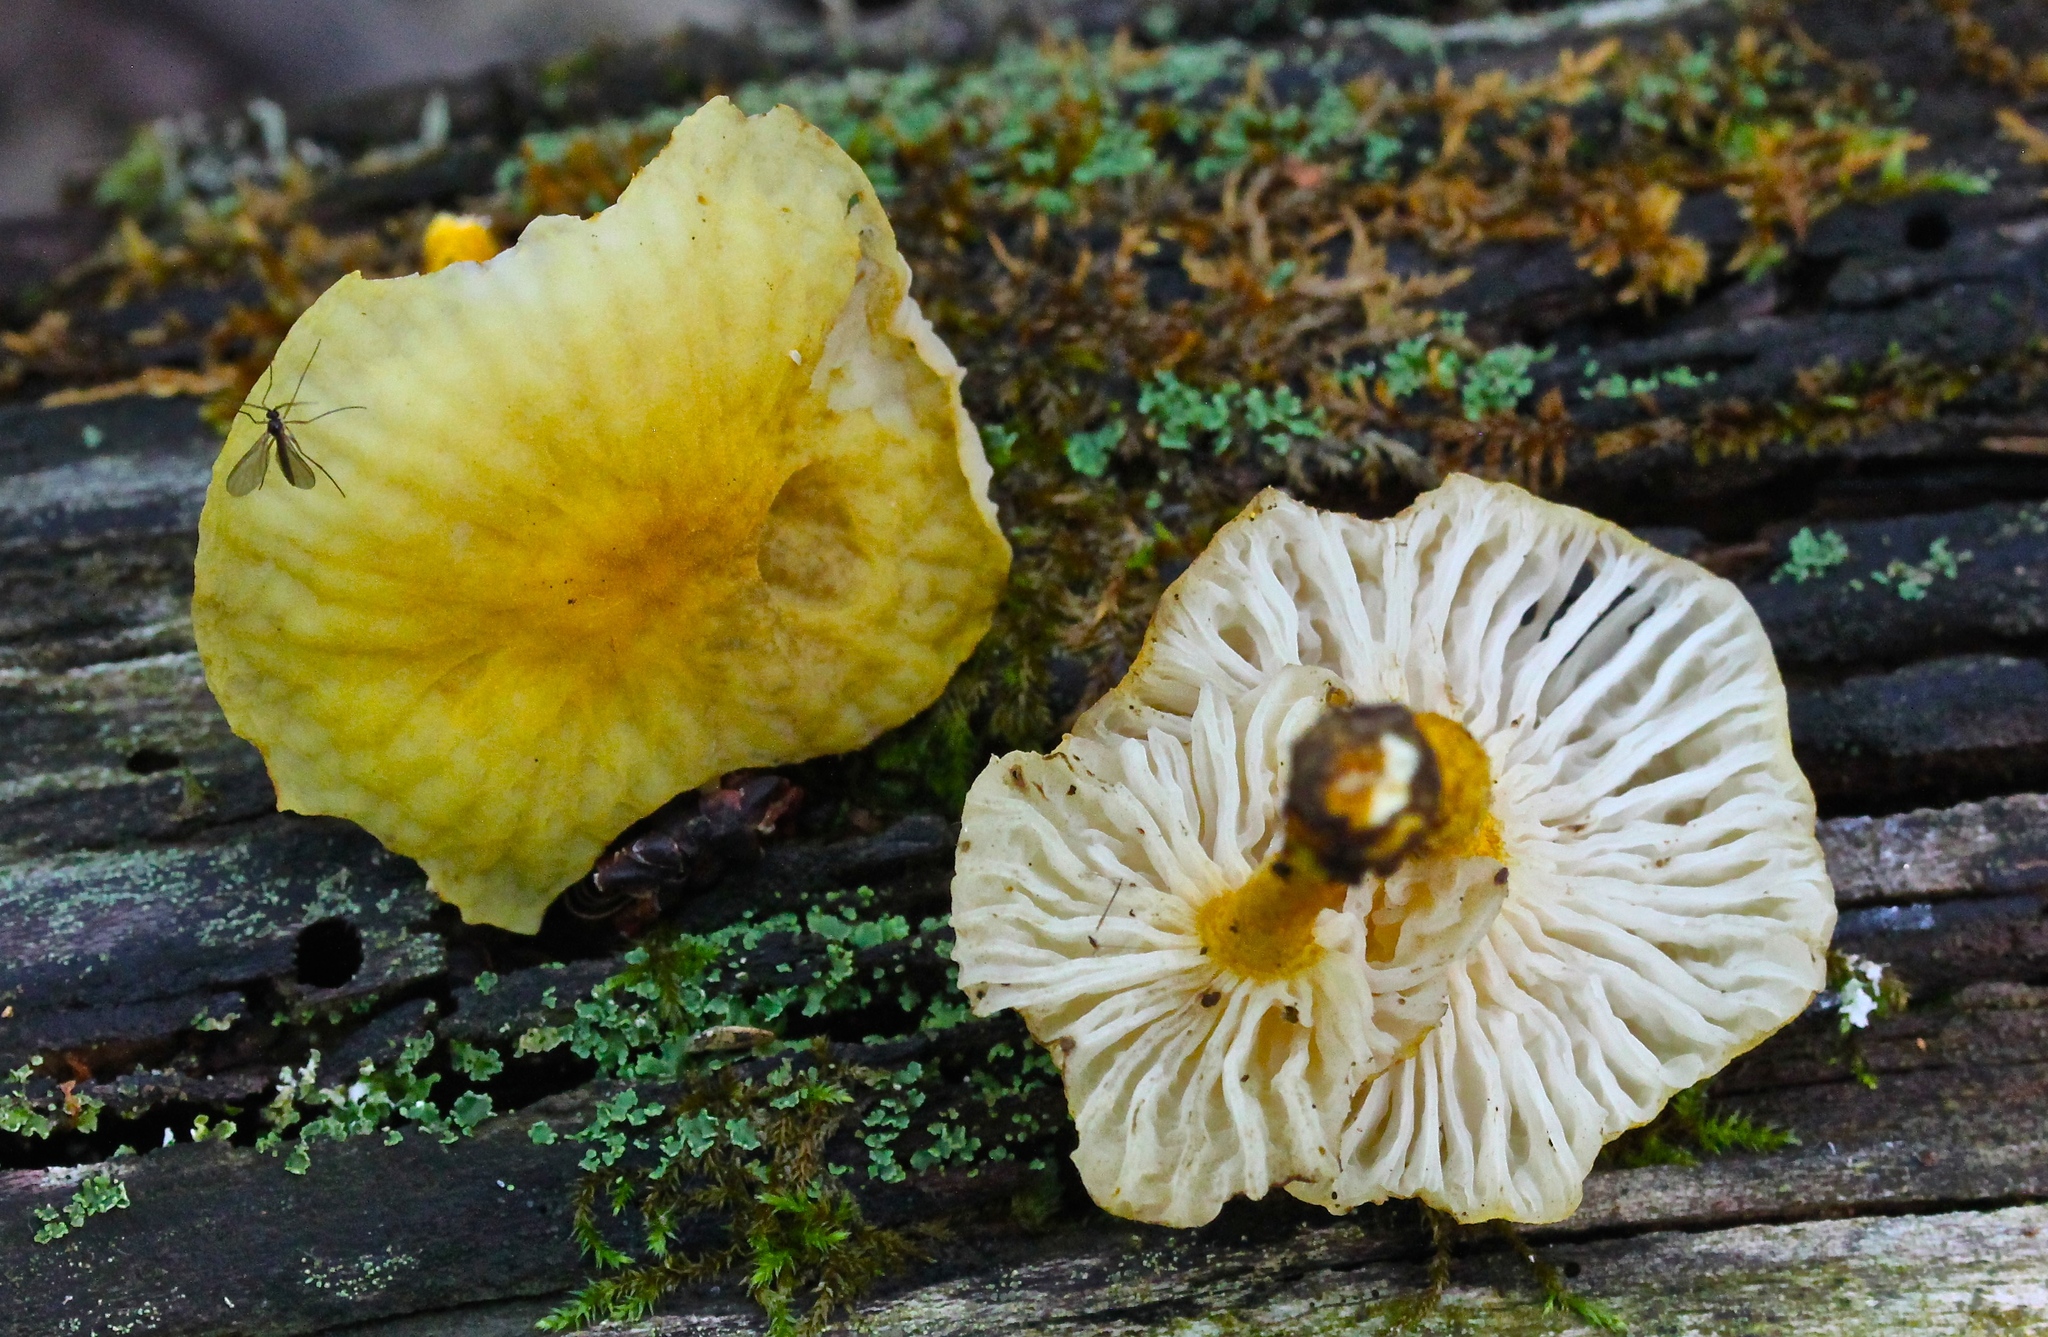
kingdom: Fungi
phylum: Basidiomycota
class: Agaricomycetes
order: Agaricales
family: Physalacriaceae
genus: Cyptotrama
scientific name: Cyptotrama chrysopepla
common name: Golden coincap
